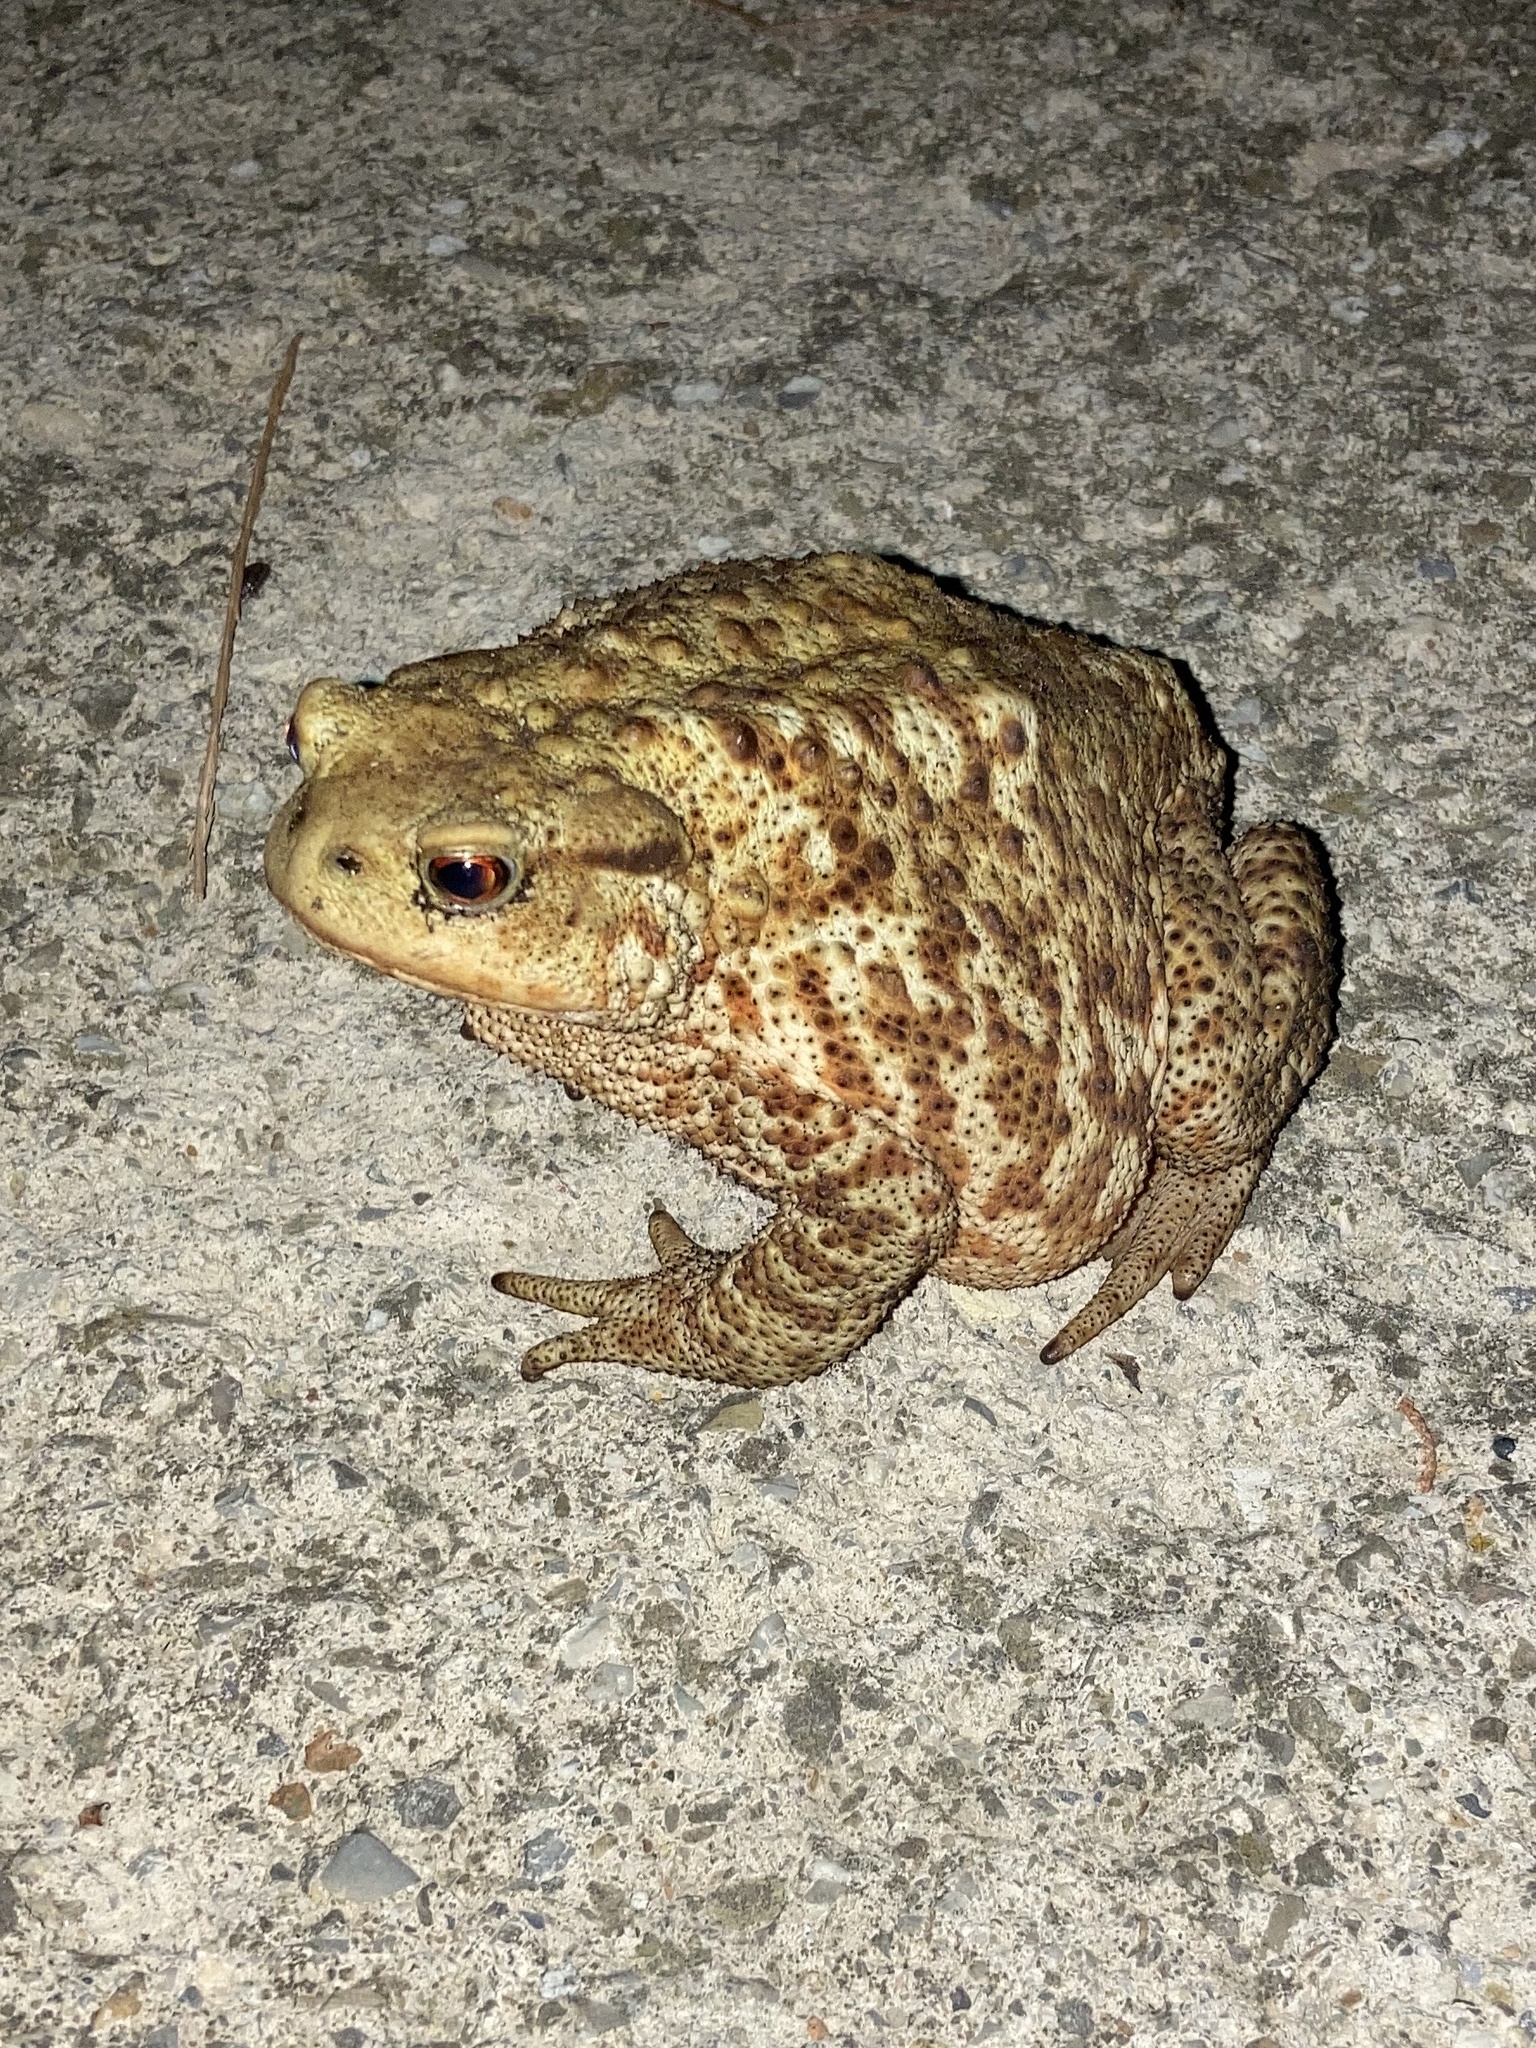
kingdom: Animalia
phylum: Chordata
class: Amphibia
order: Anura
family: Bufonidae
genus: Bufo
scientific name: Bufo bufo
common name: Common toad
